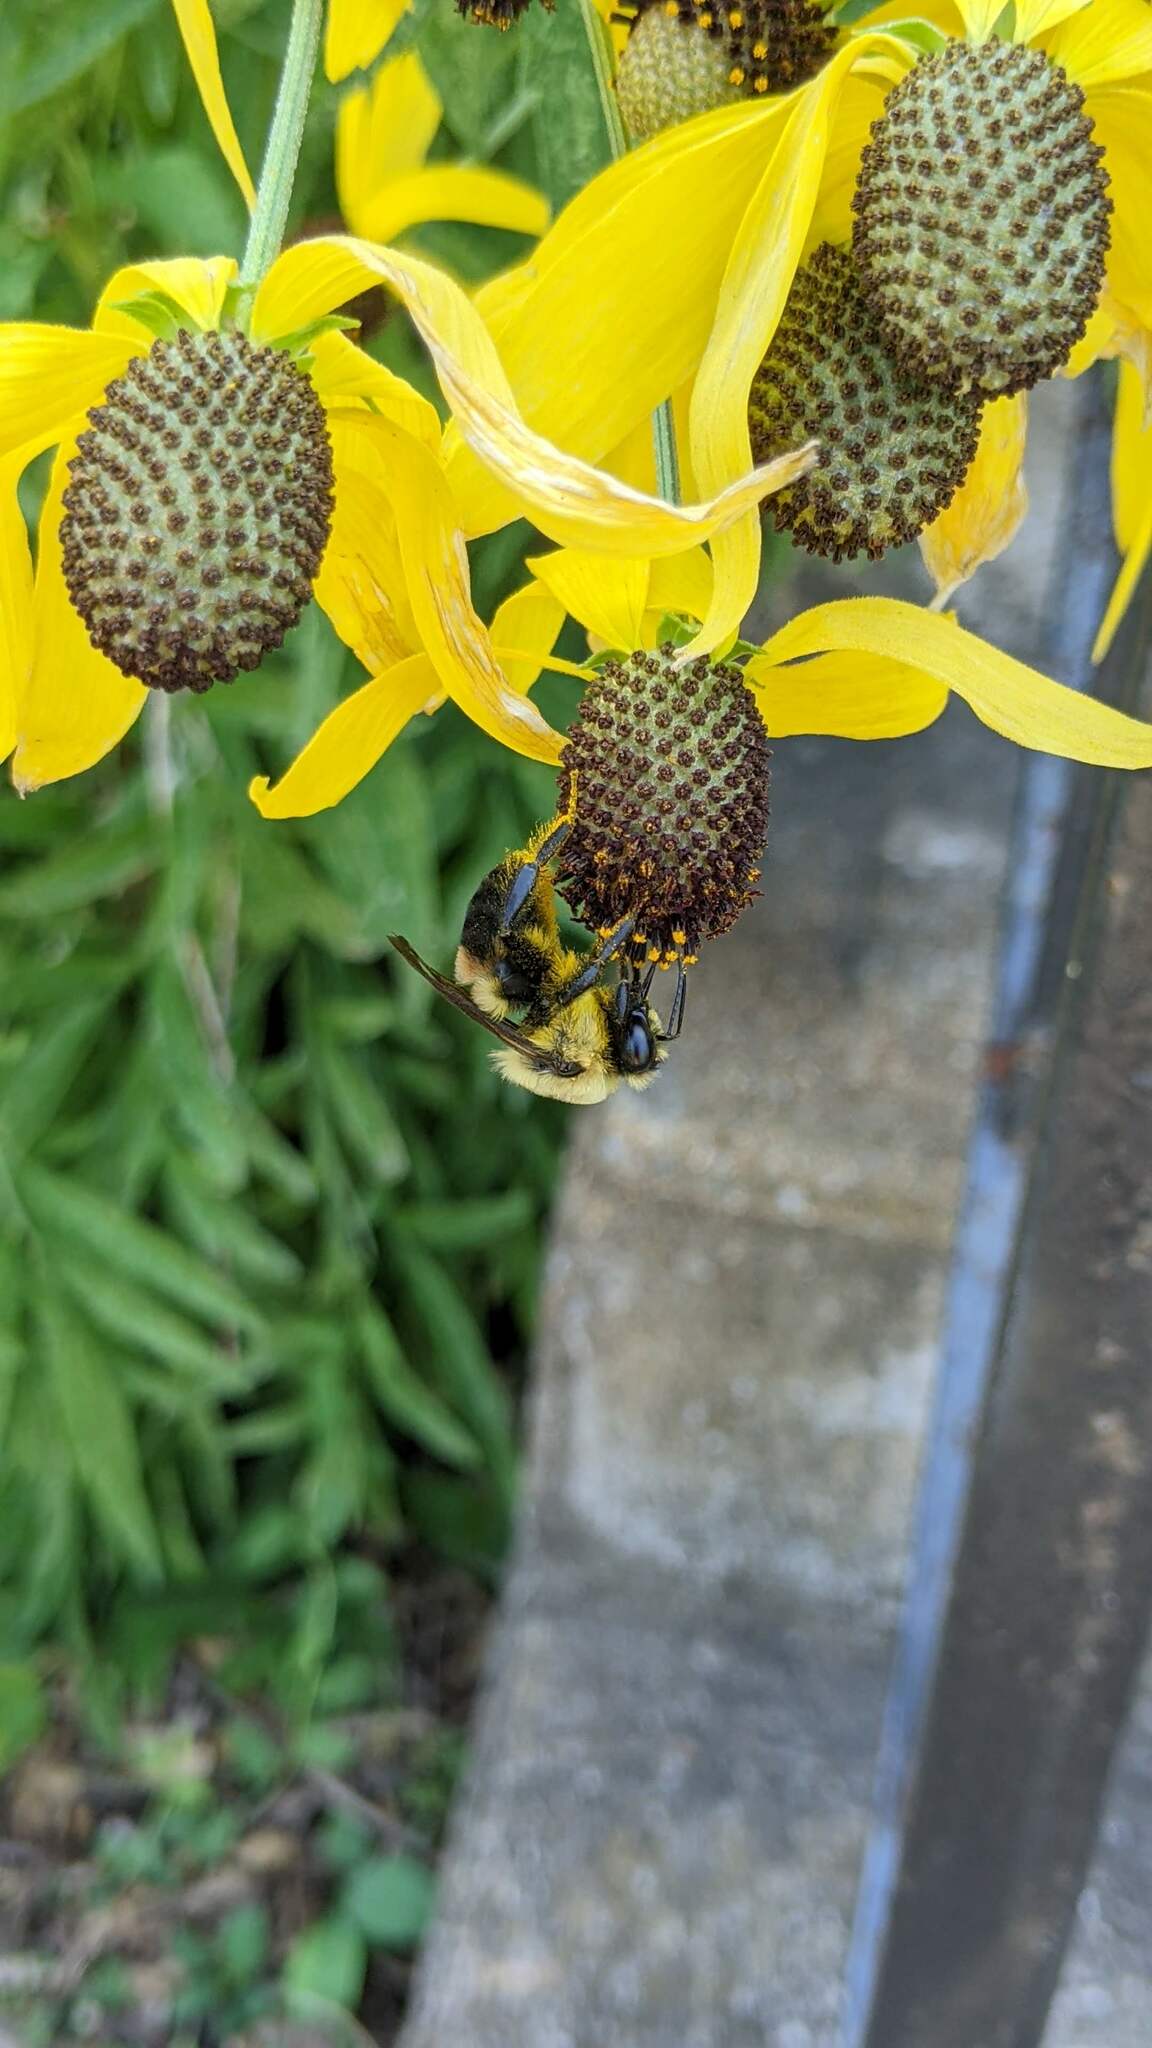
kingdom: Animalia
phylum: Arthropoda
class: Insecta
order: Hymenoptera
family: Apidae
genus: Bombus
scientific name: Bombus griseocollis
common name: Brown-belted bumble bee
